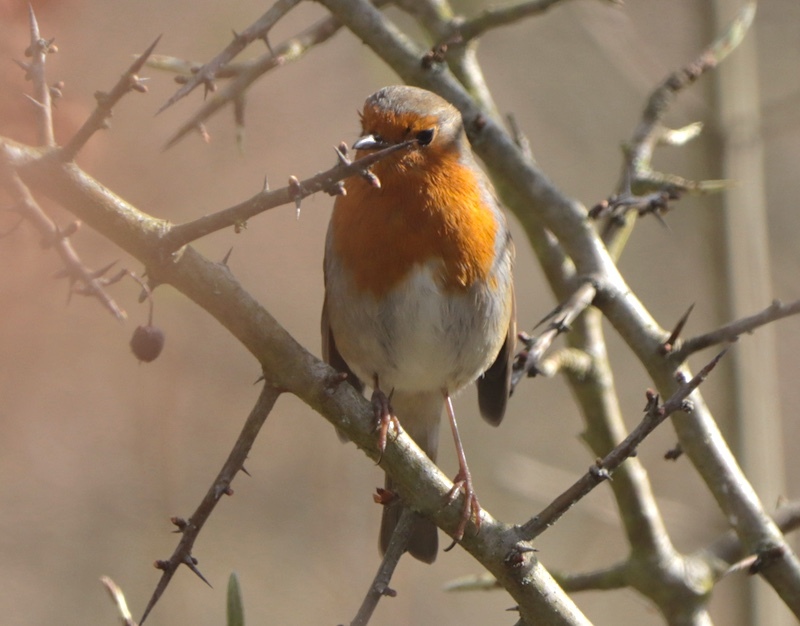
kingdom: Animalia
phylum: Chordata
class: Aves
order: Passeriformes
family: Muscicapidae
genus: Erithacus
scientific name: Erithacus rubecula
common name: European robin
